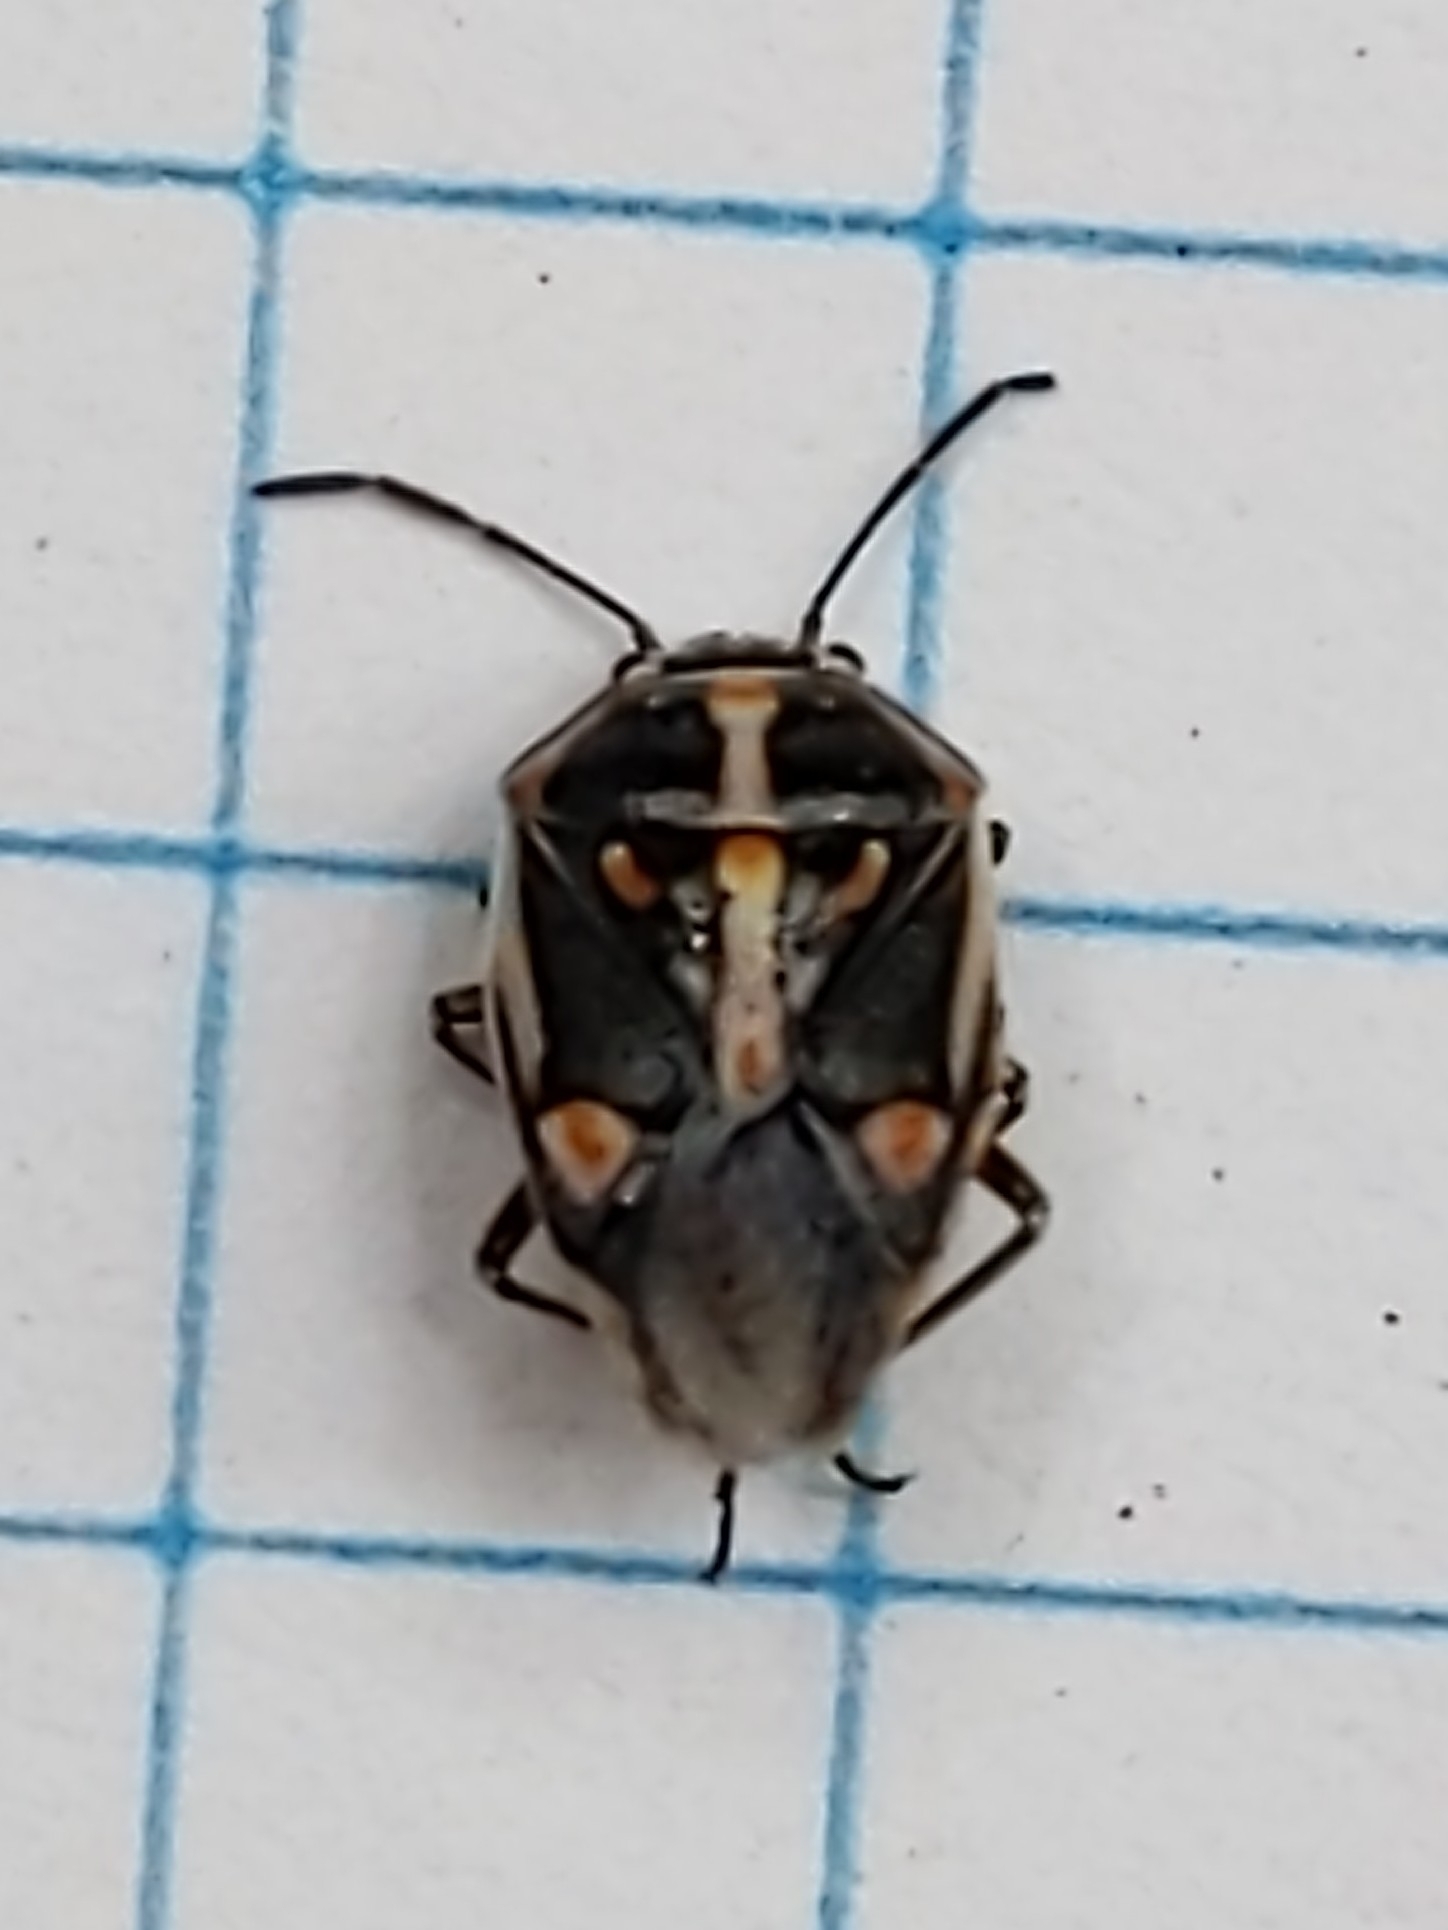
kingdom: Animalia
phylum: Arthropoda
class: Insecta
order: Hemiptera
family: Pentatomidae
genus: Bagrada
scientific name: Bagrada hilaris
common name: Bagrada bug
